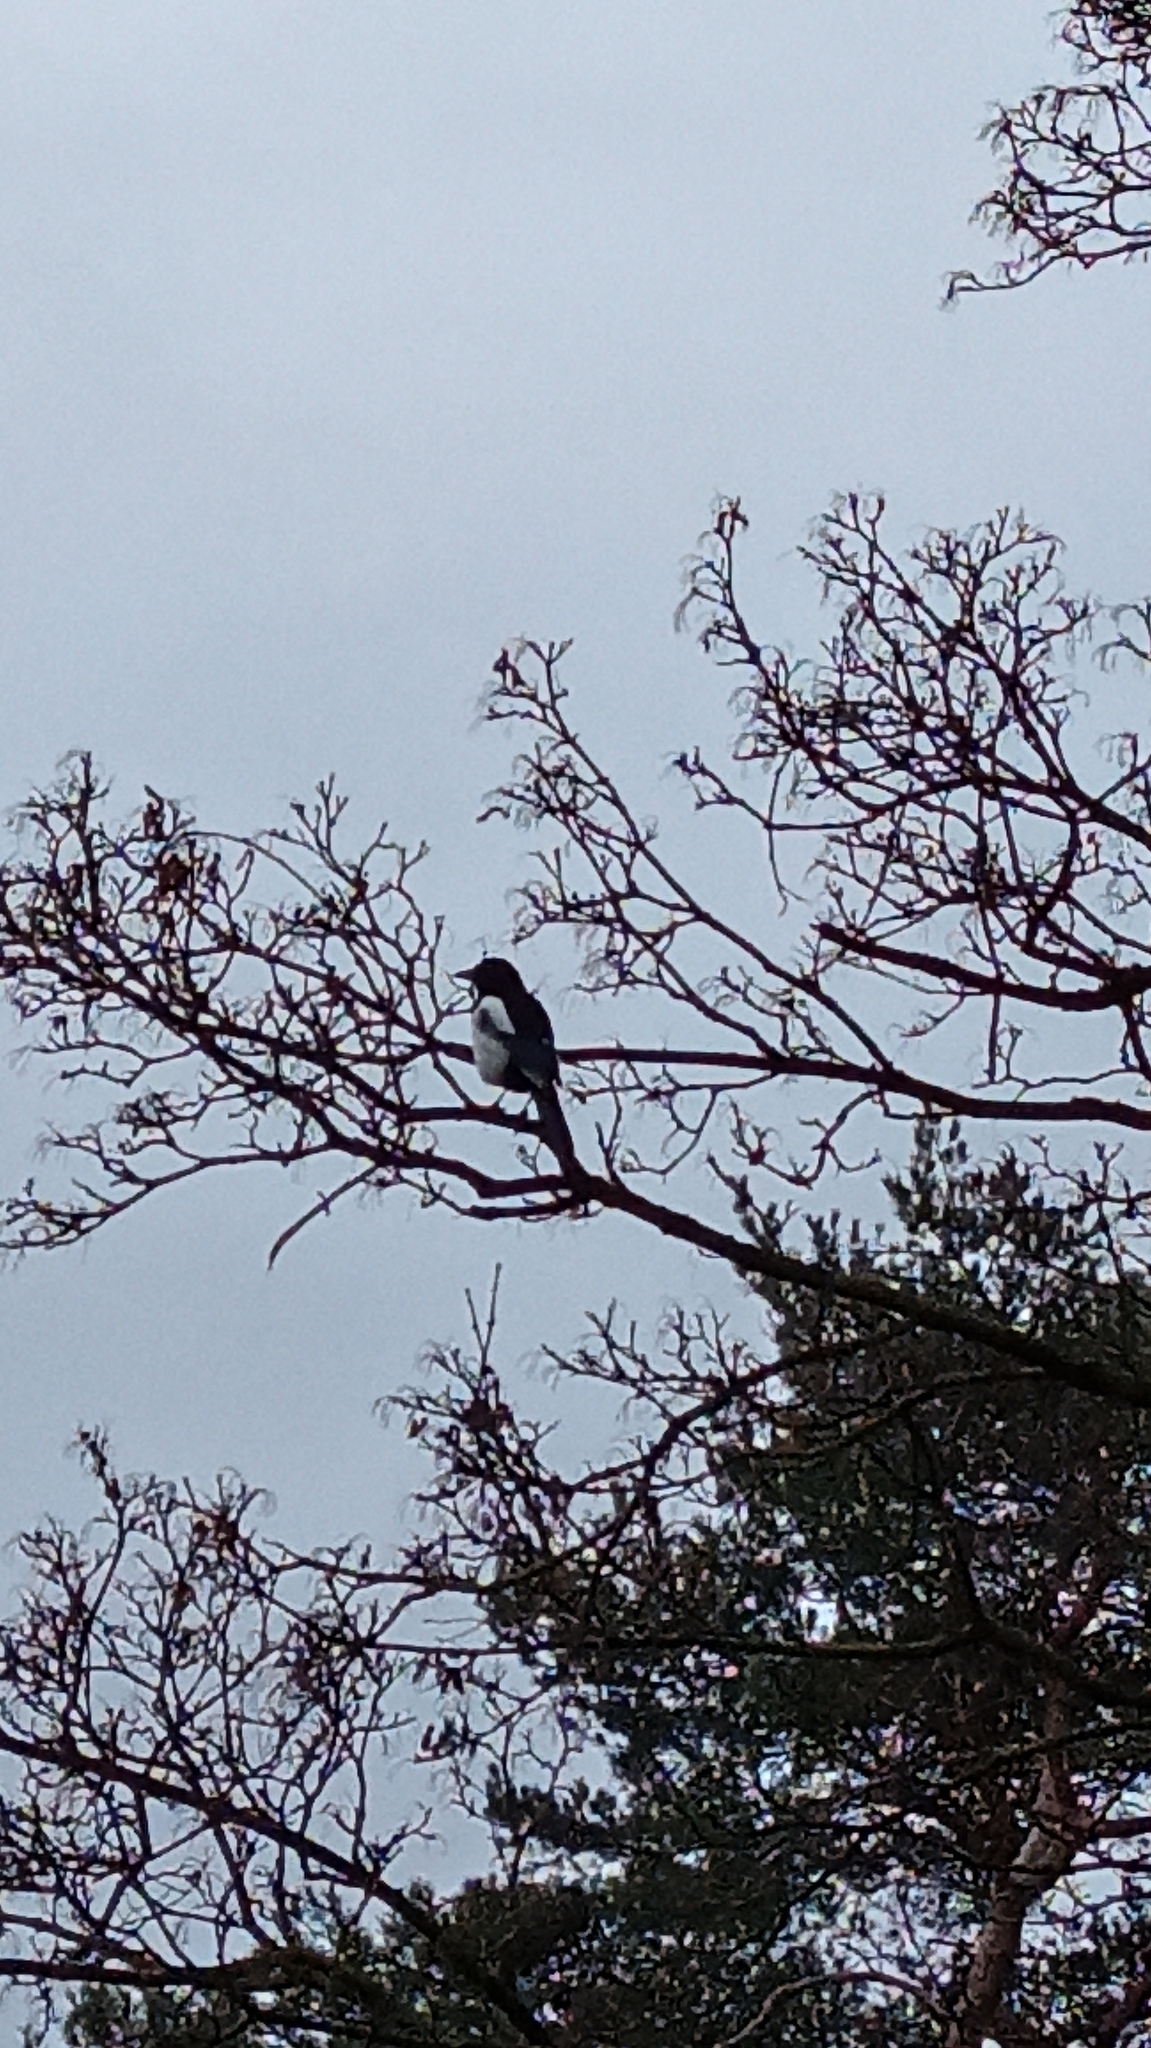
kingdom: Animalia
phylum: Chordata
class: Aves
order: Passeriformes
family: Corvidae
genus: Pica
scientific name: Pica pica
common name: Eurasian magpie
